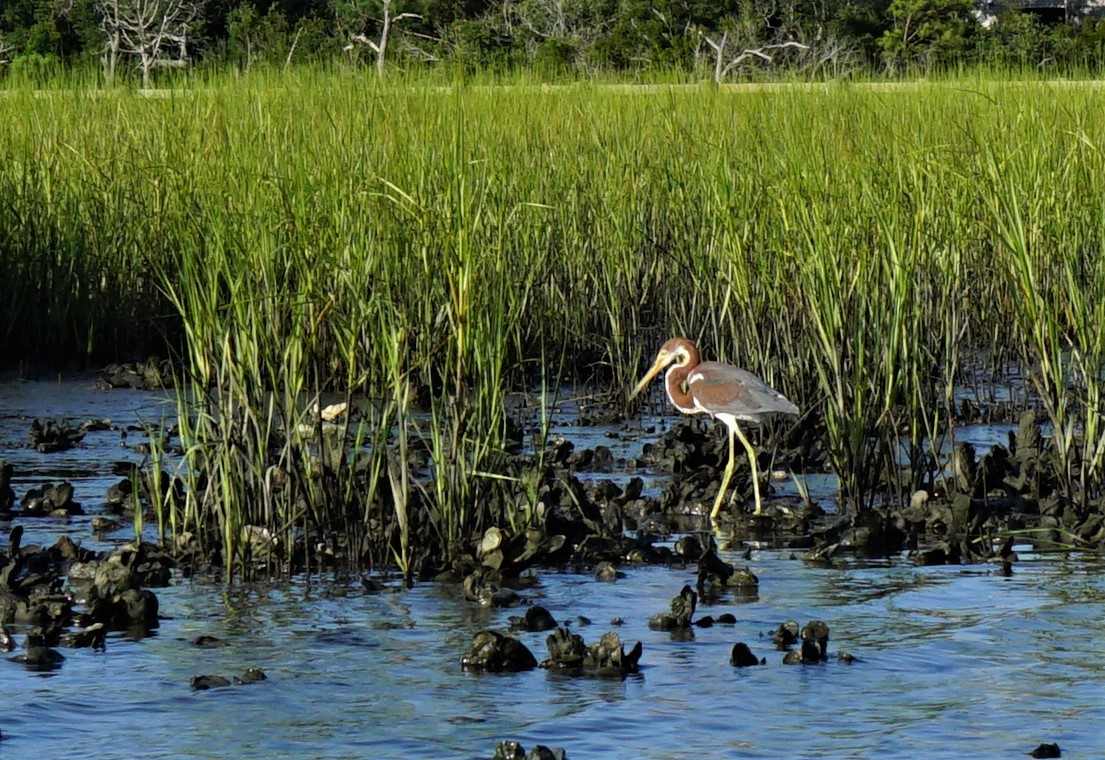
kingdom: Animalia
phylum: Chordata
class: Aves
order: Pelecaniformes
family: Ardeidae
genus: Egretta
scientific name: Egretta tricolor
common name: Tricolored heron
